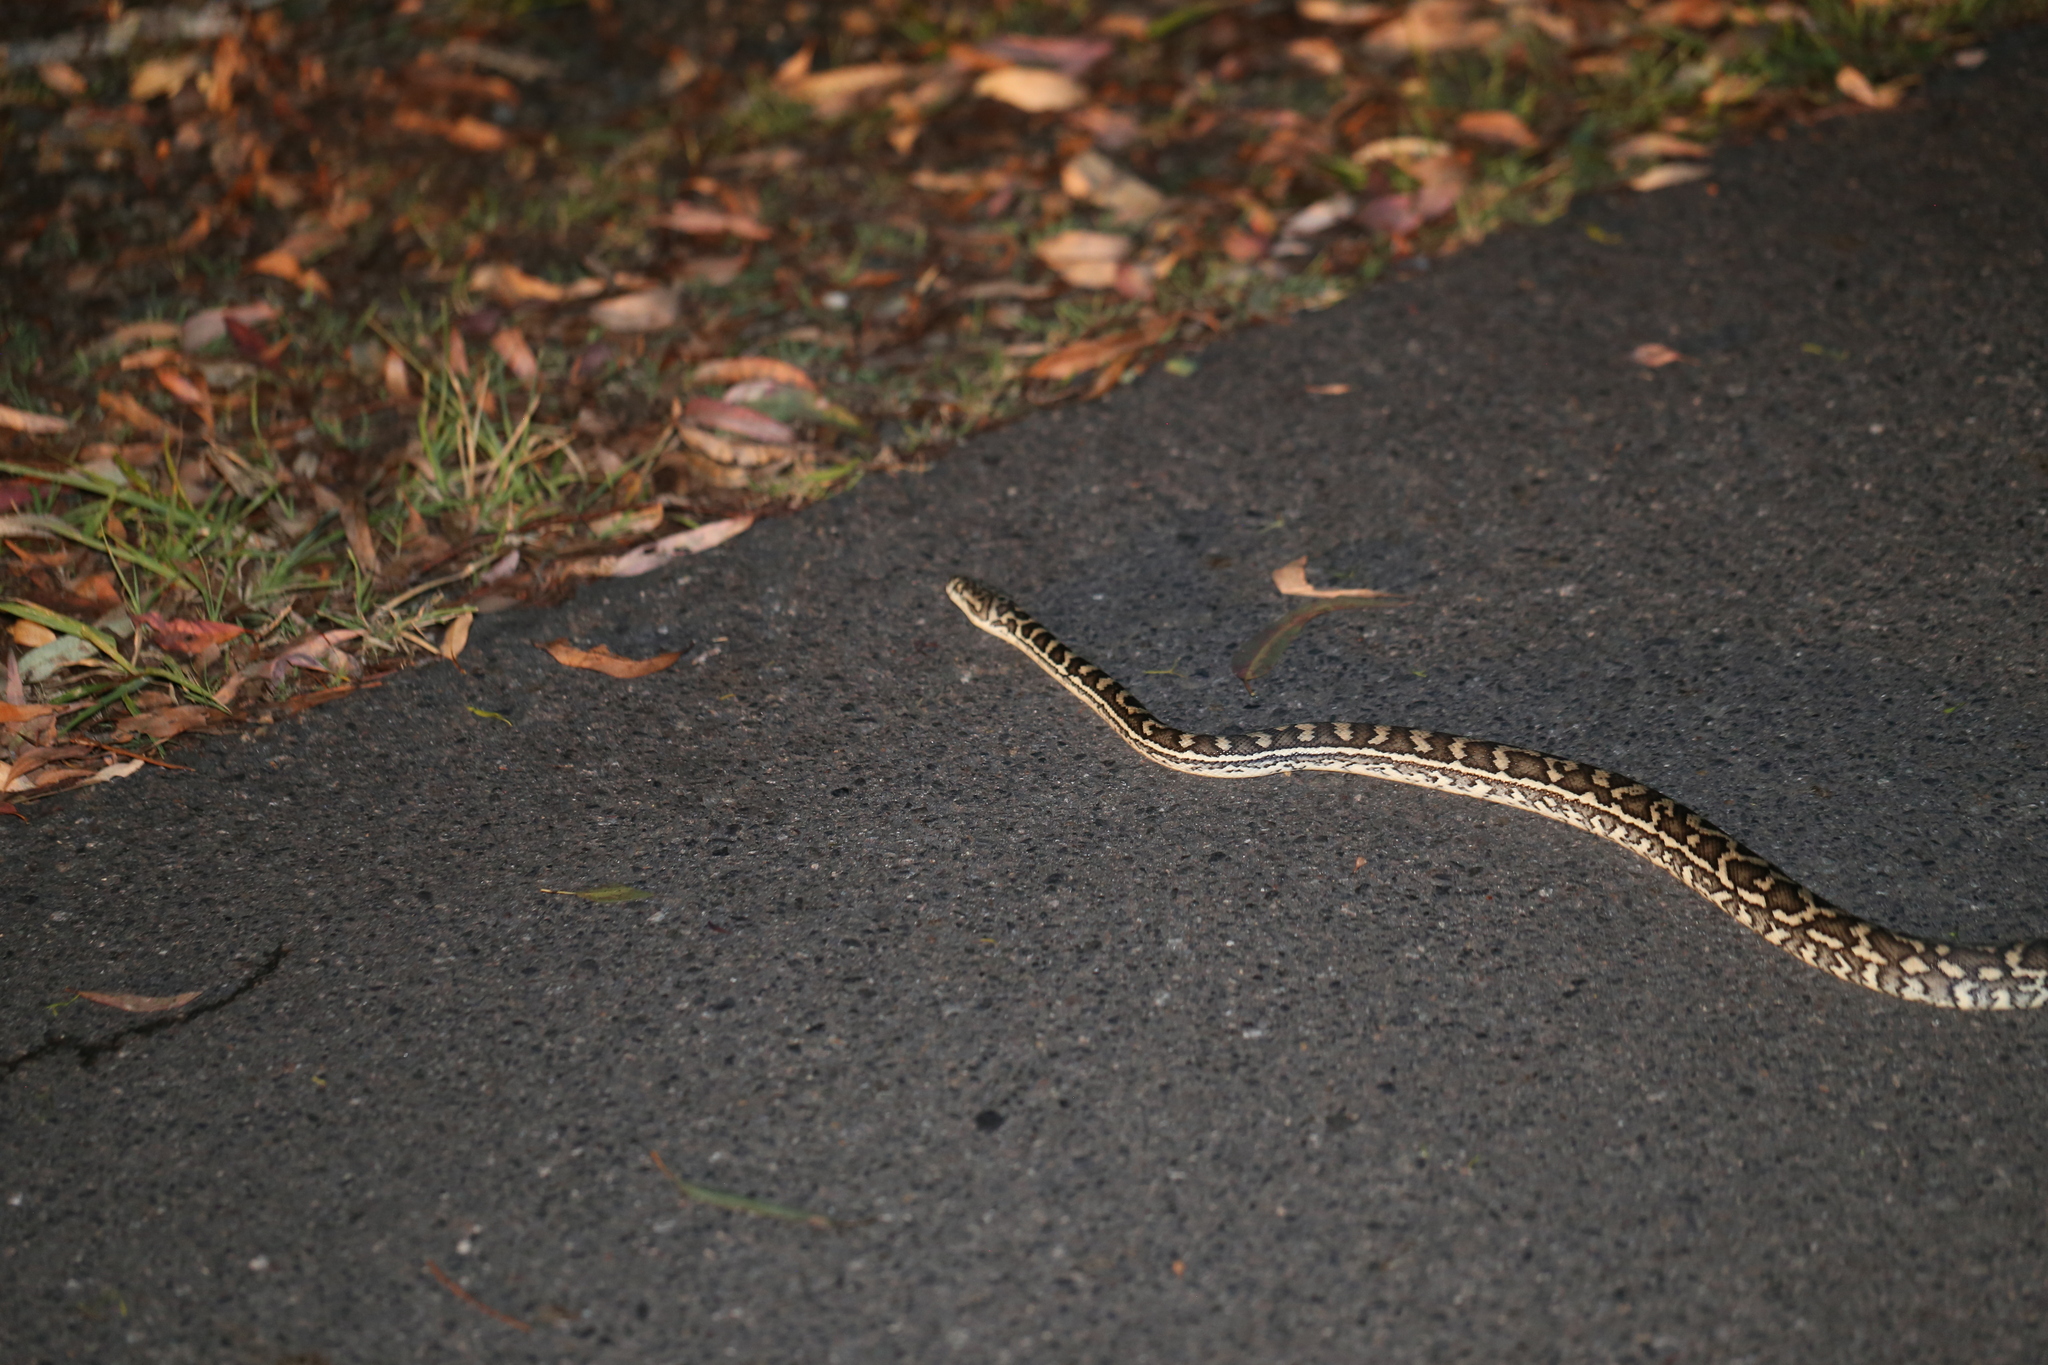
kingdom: Animalia
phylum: Chordata
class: Squamata
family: Pythonidae
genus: Morelia
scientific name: Morelia spilota
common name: Carpet python
